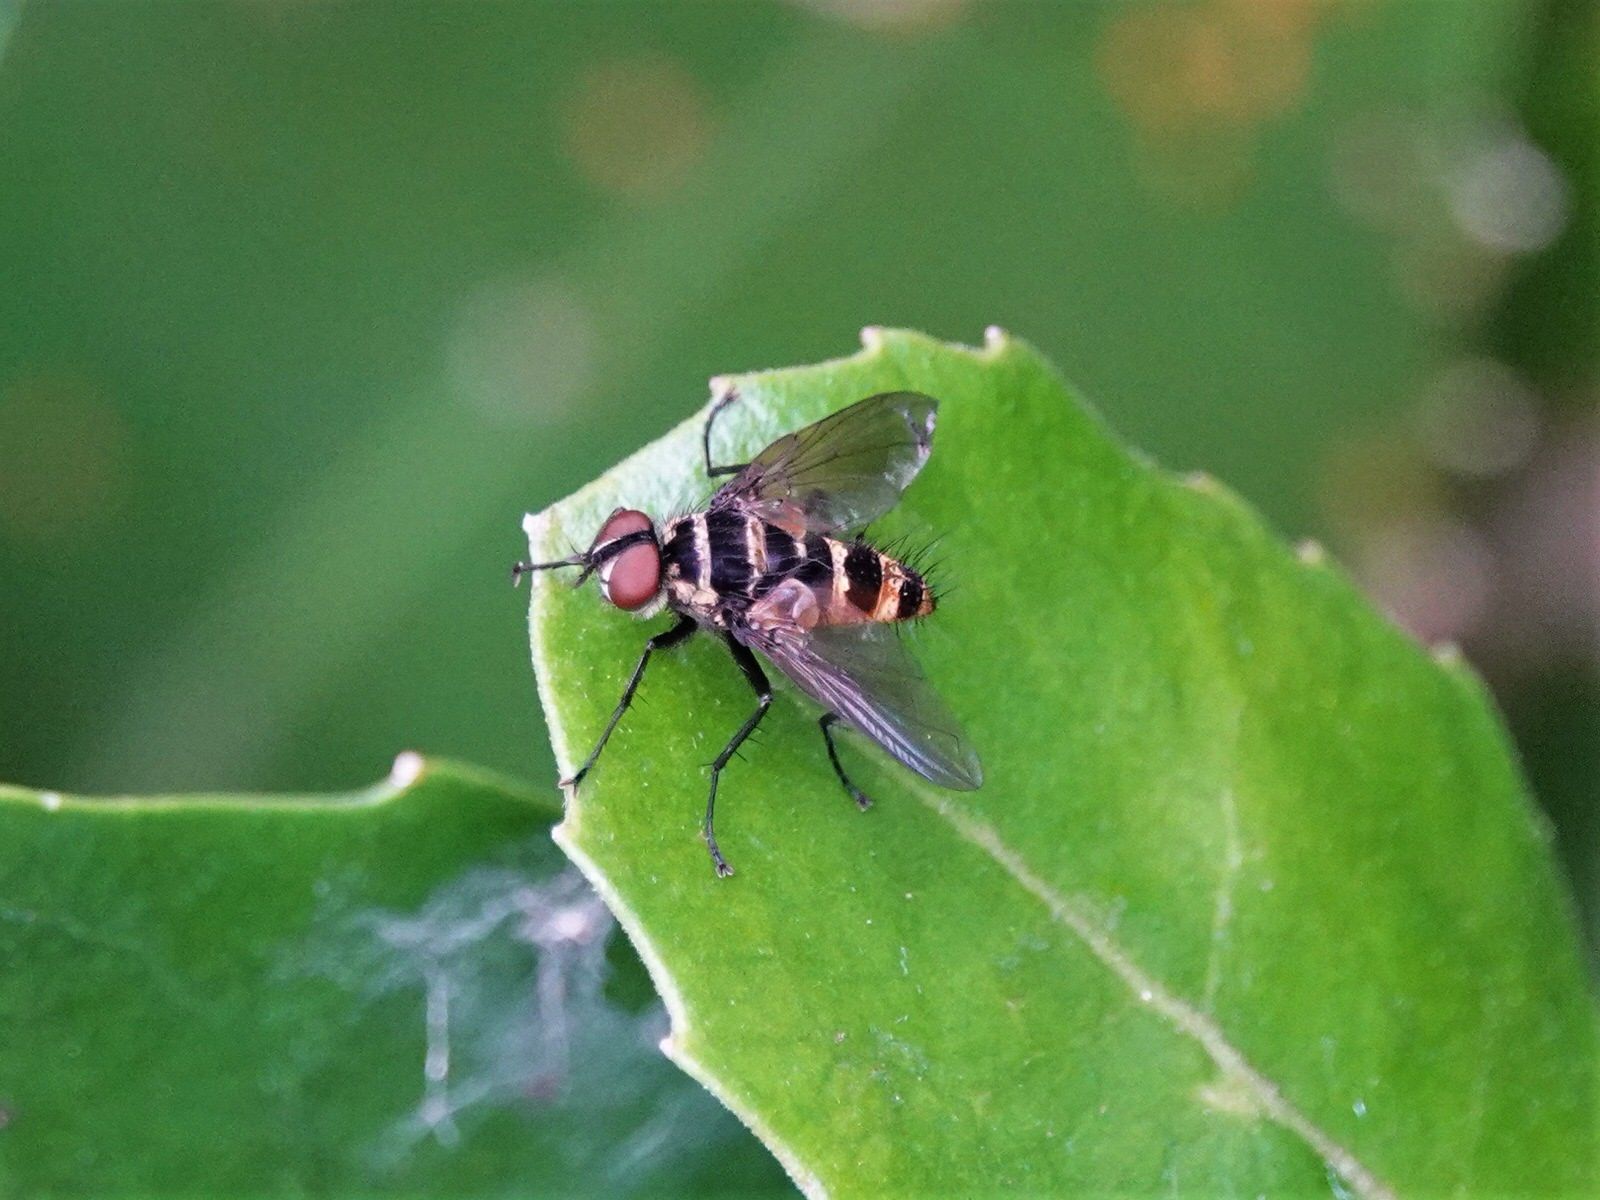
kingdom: Animalia
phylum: Arthropoda
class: Insecta
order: Diptera
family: Tachinidae
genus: Trigonospila
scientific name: Trigonospila brevifacies
